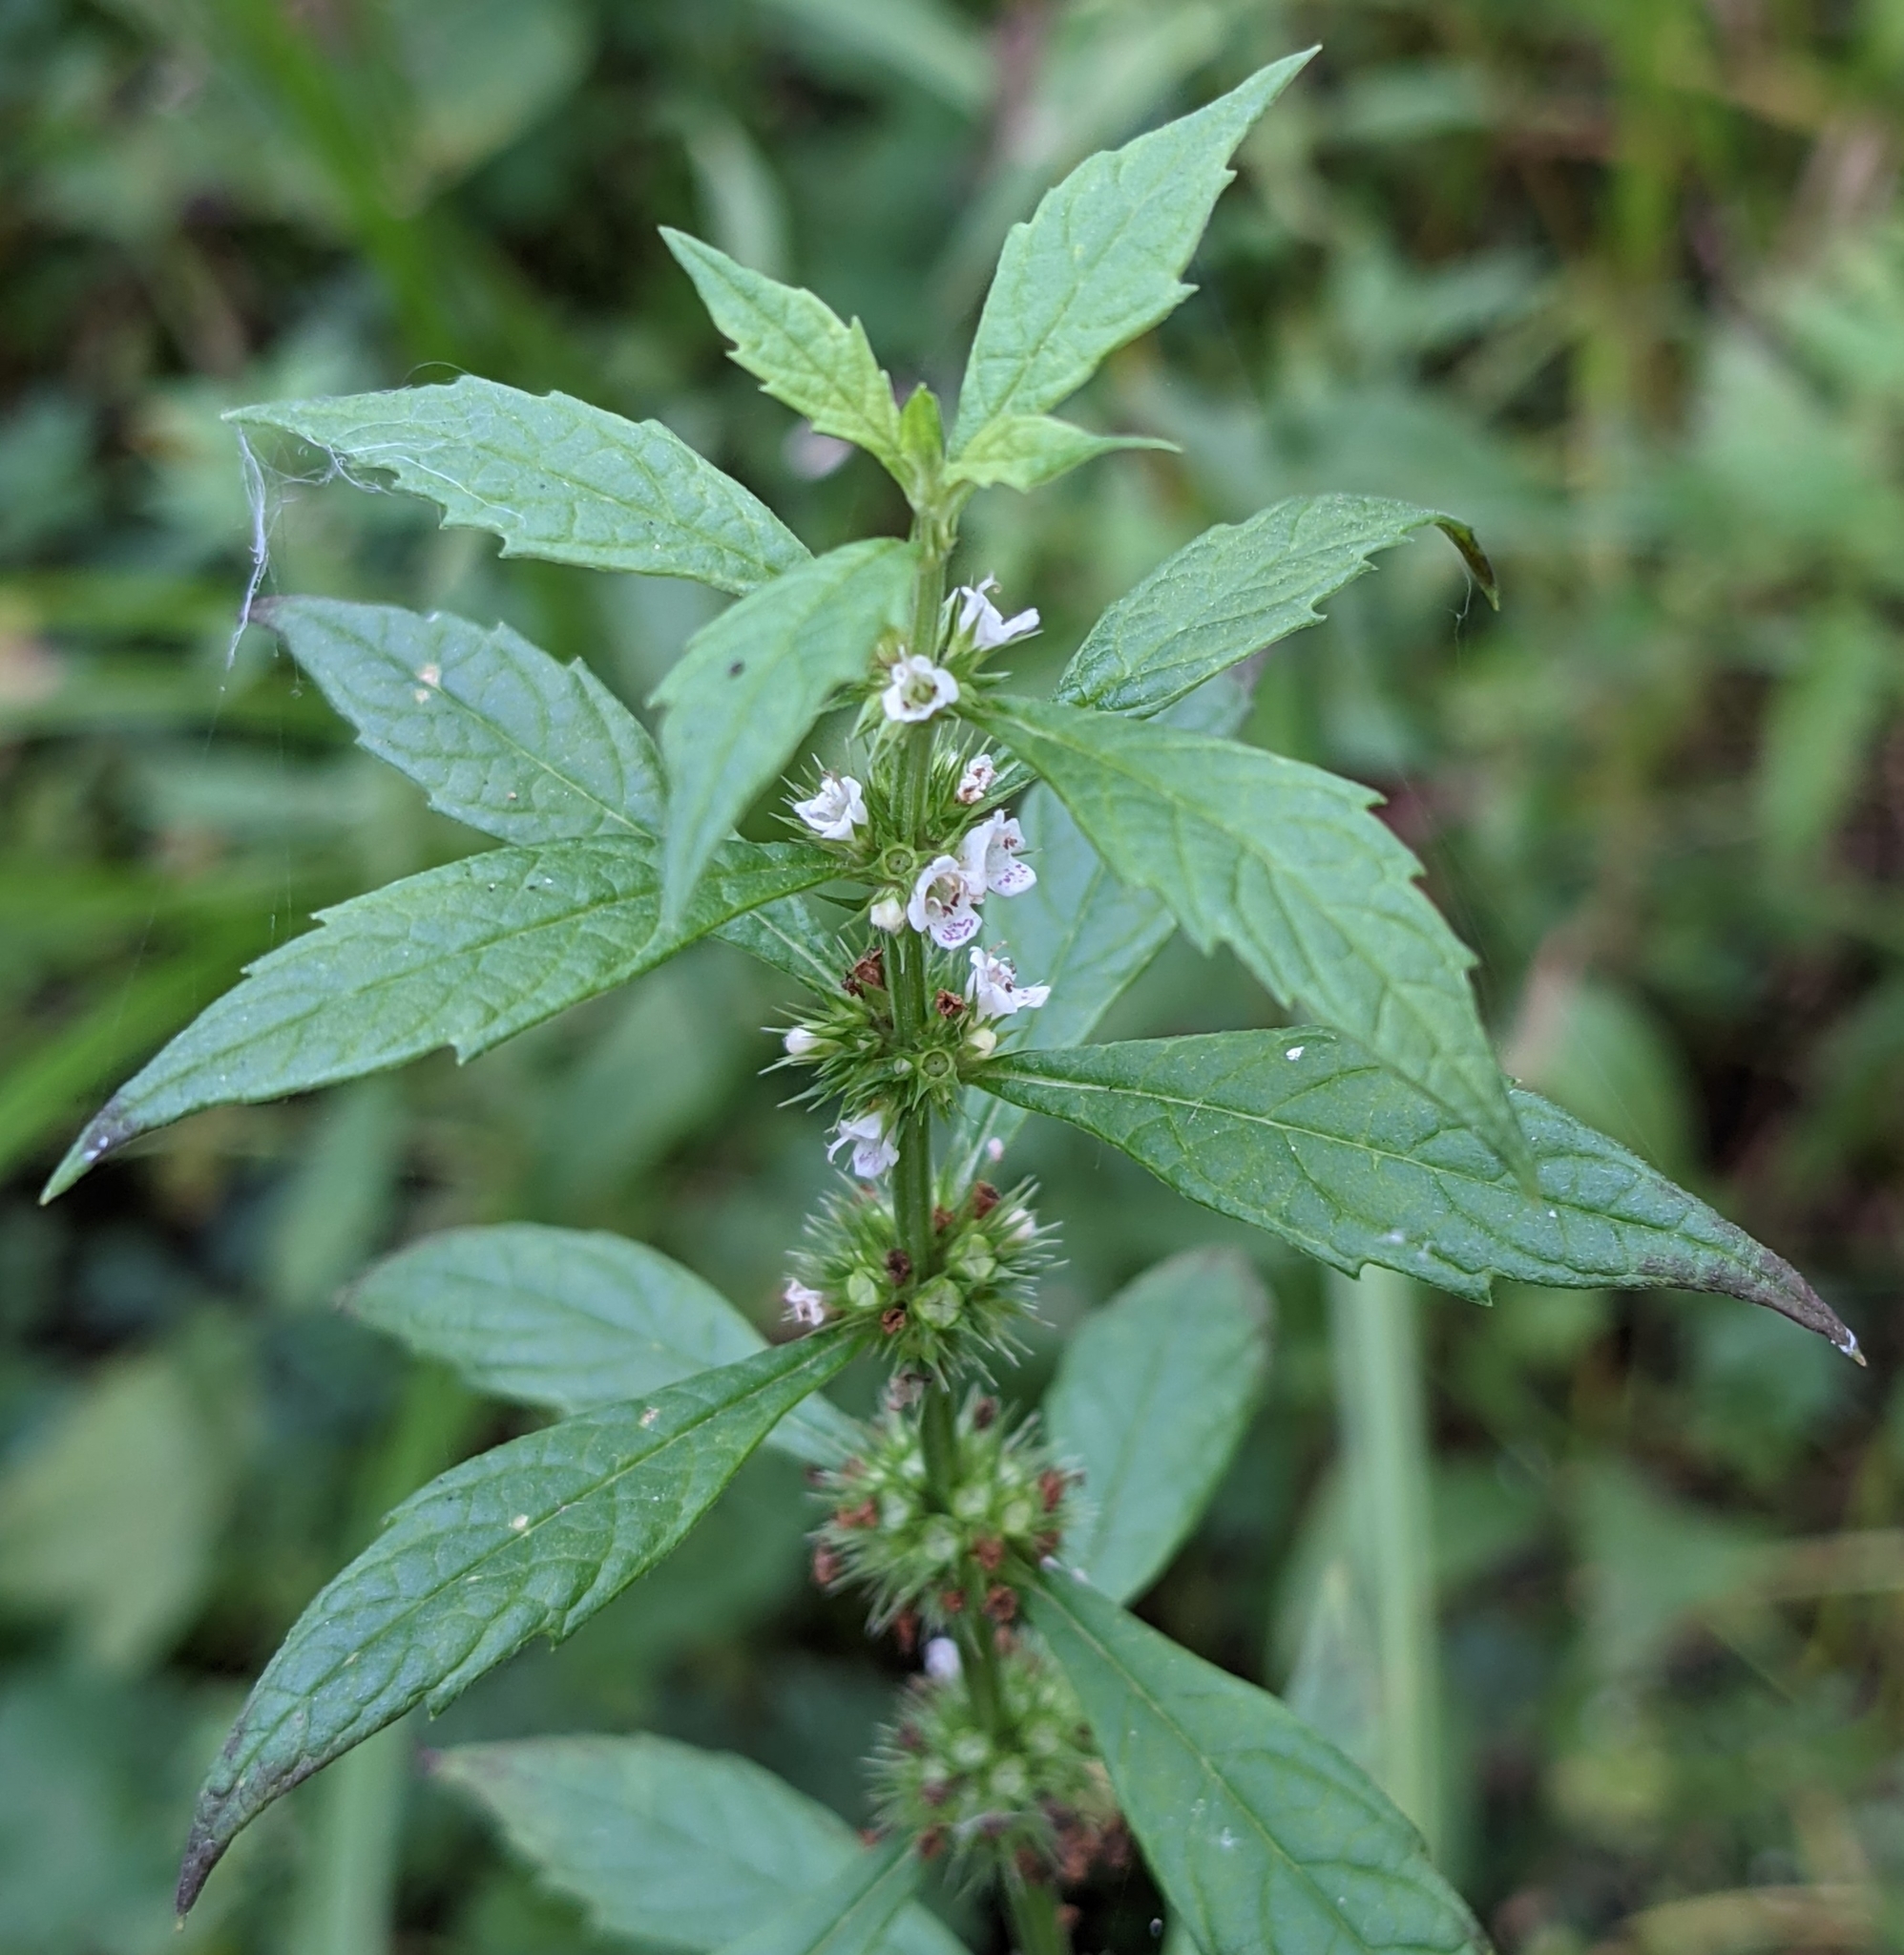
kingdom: Plantae
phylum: Tracheophyta
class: Magnoliopsida
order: Lamiales
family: Lamiaceae
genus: Lycopus
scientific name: Lycopus europaeus
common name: European bugleweed
